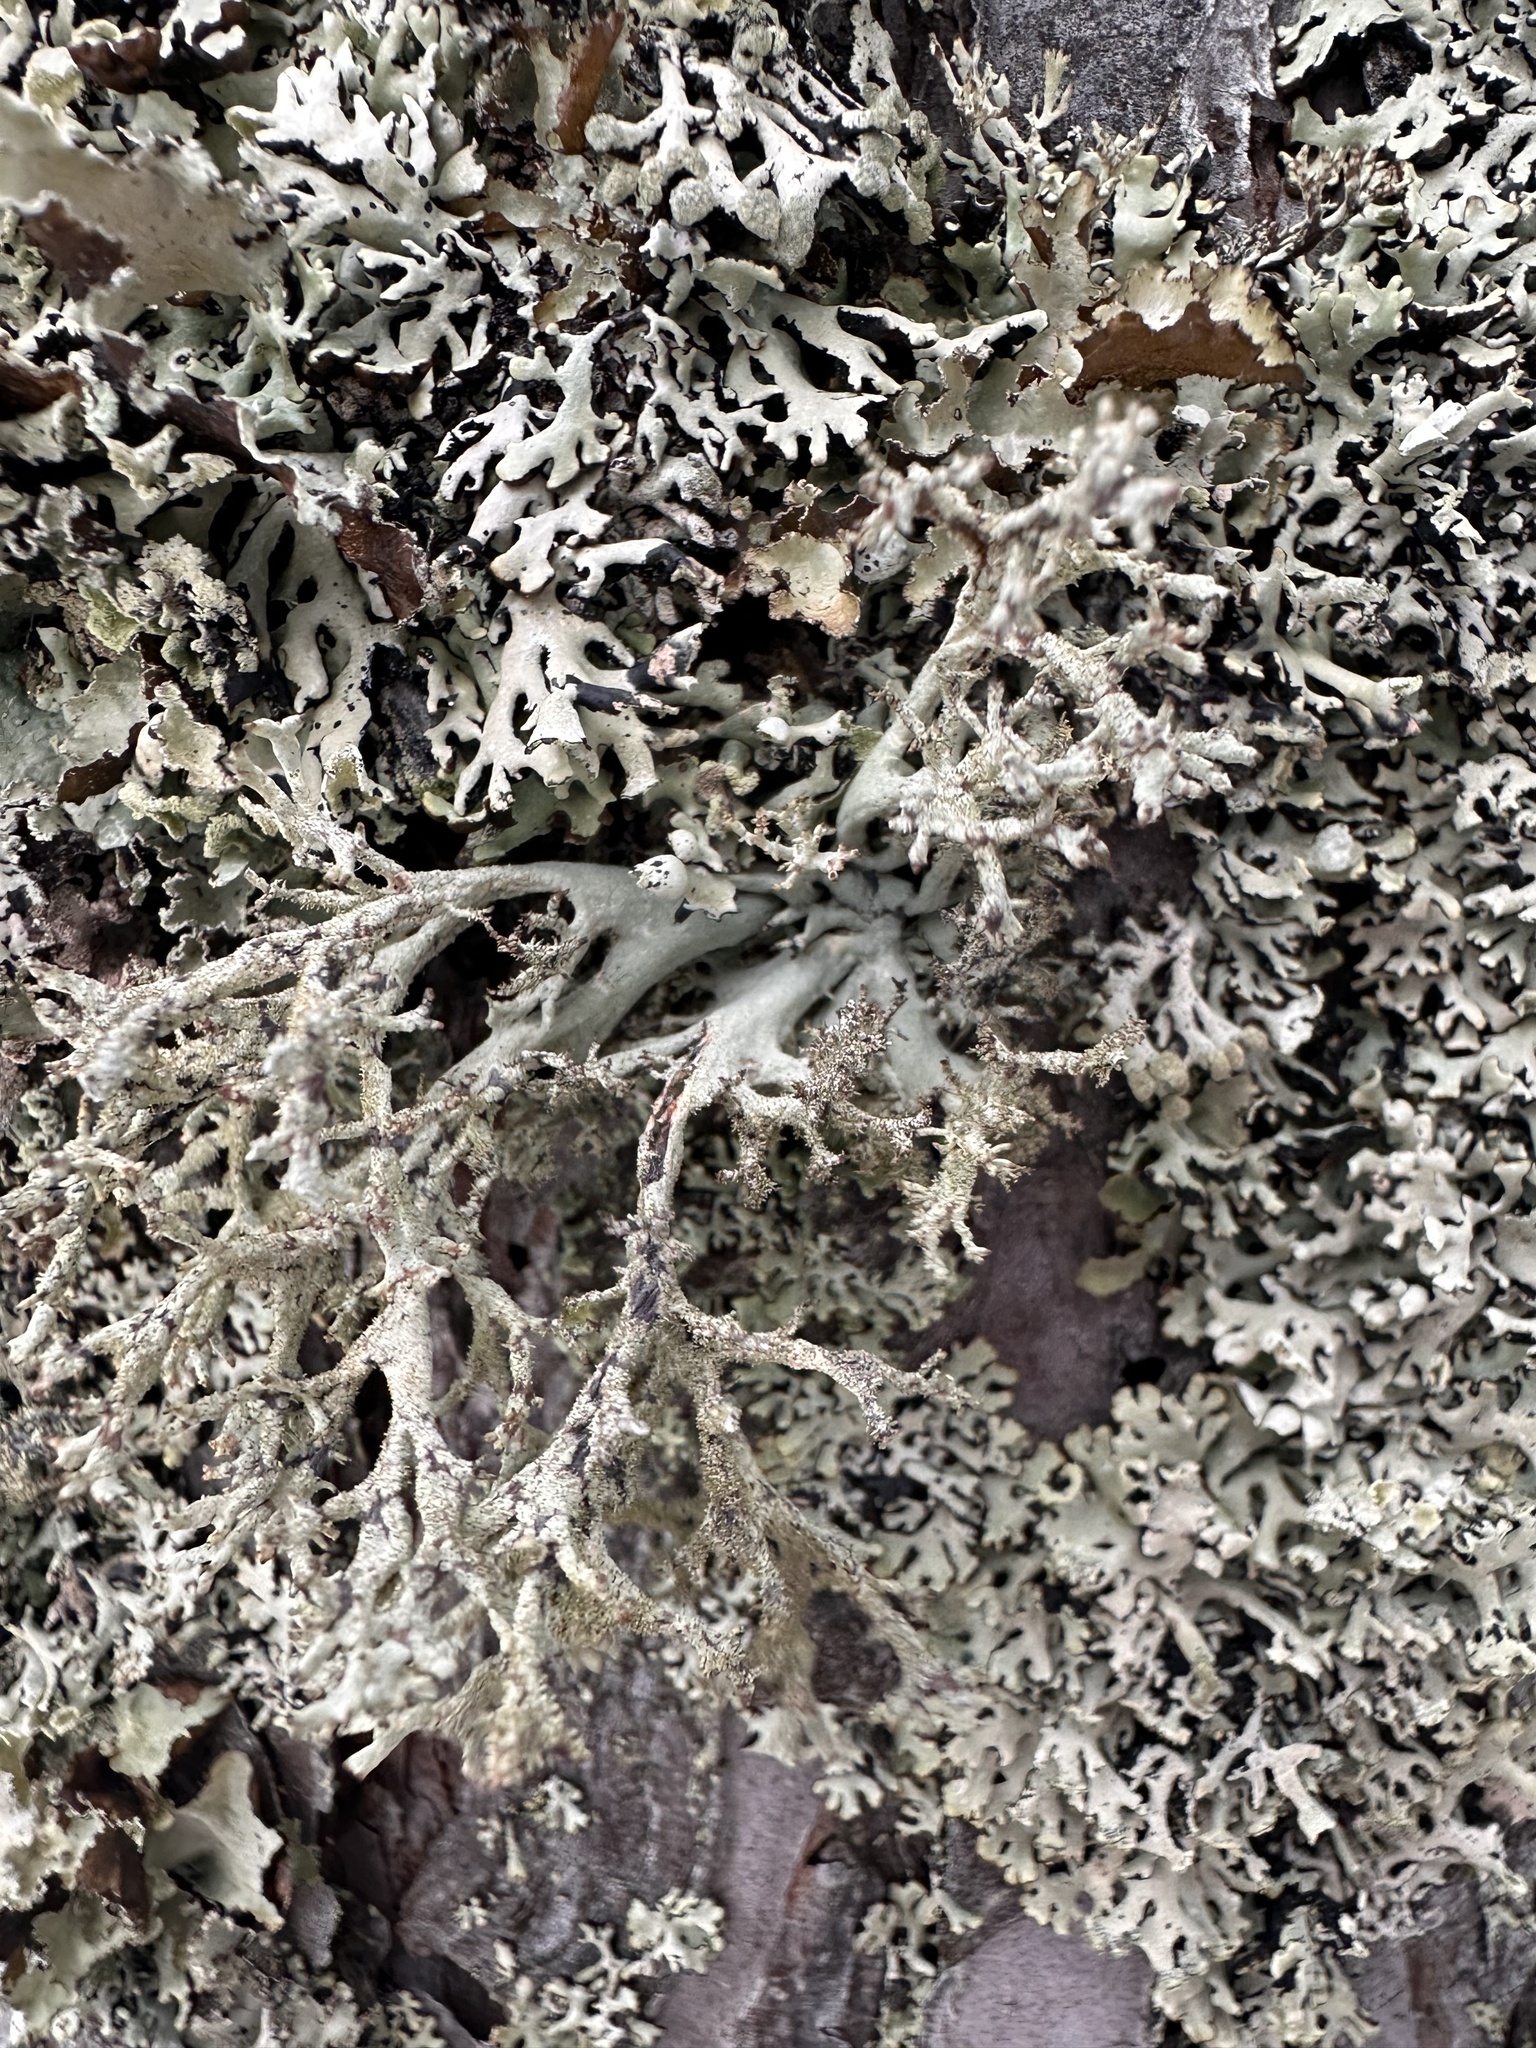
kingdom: Fungi
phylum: Ascomycota
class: Lecanoromycetes
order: Lecanorales
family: Parmeliaceae
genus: Pseudevernia
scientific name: Pseudevernia furfuracea
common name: Tree moss
